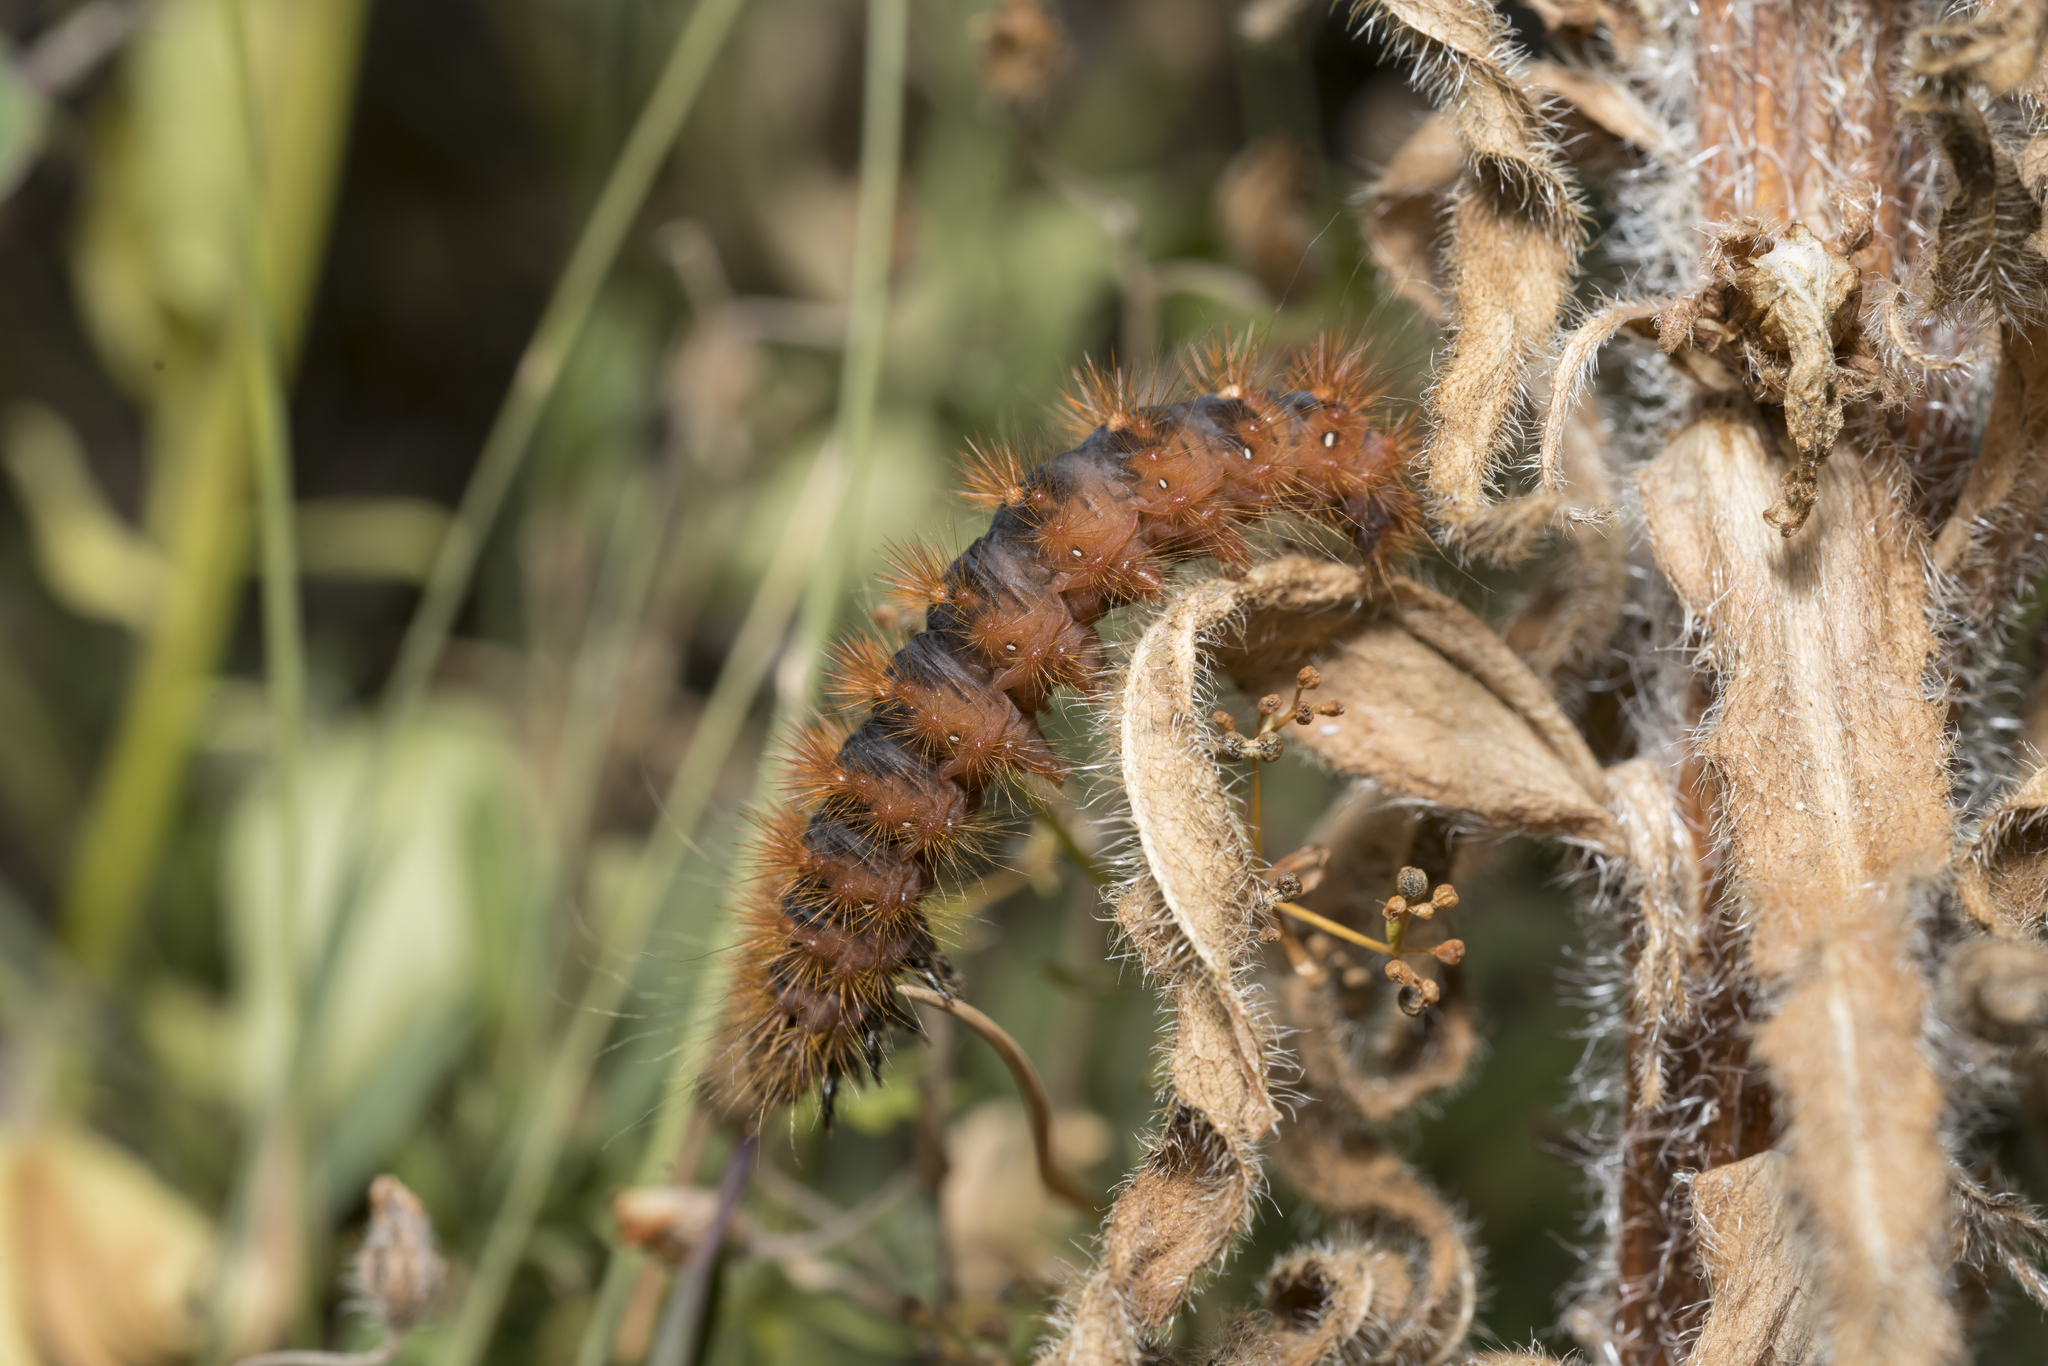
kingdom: Animalia
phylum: Arthropoda
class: Insecta
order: Lepidoptera
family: Noctuidae
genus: Acronicta
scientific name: Acronicta auricoma
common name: Scarce dagger
